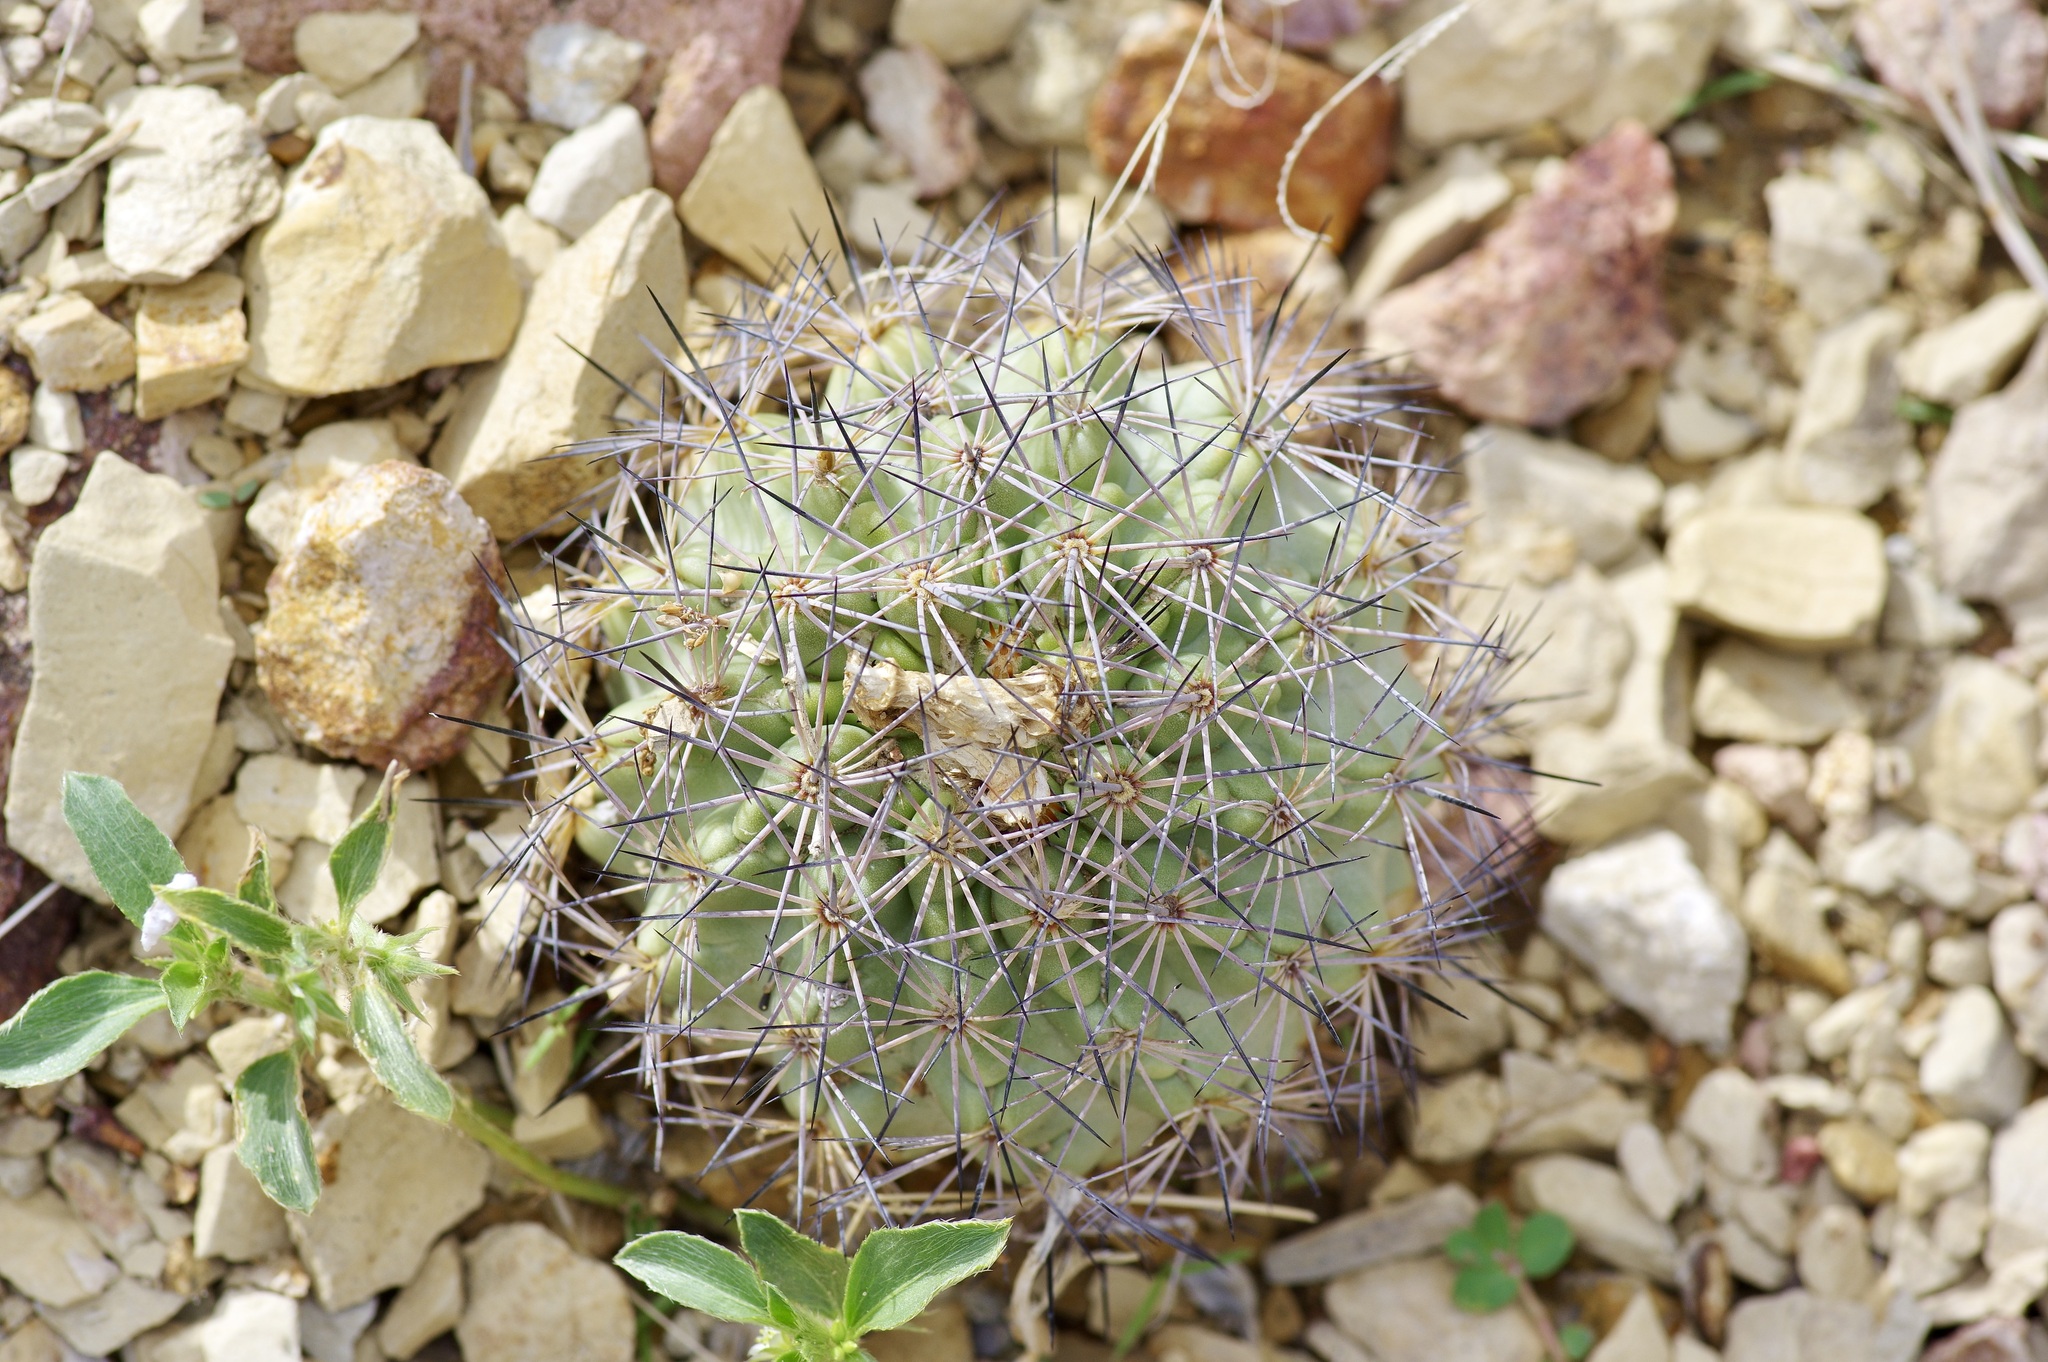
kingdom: Plantae
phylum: Tracheophyta
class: Magnoliopsida
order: Caryophyllales
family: Cactaceae
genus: Sclerocactus
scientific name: Sclerocactus warnockii
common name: Pineapple cactus
